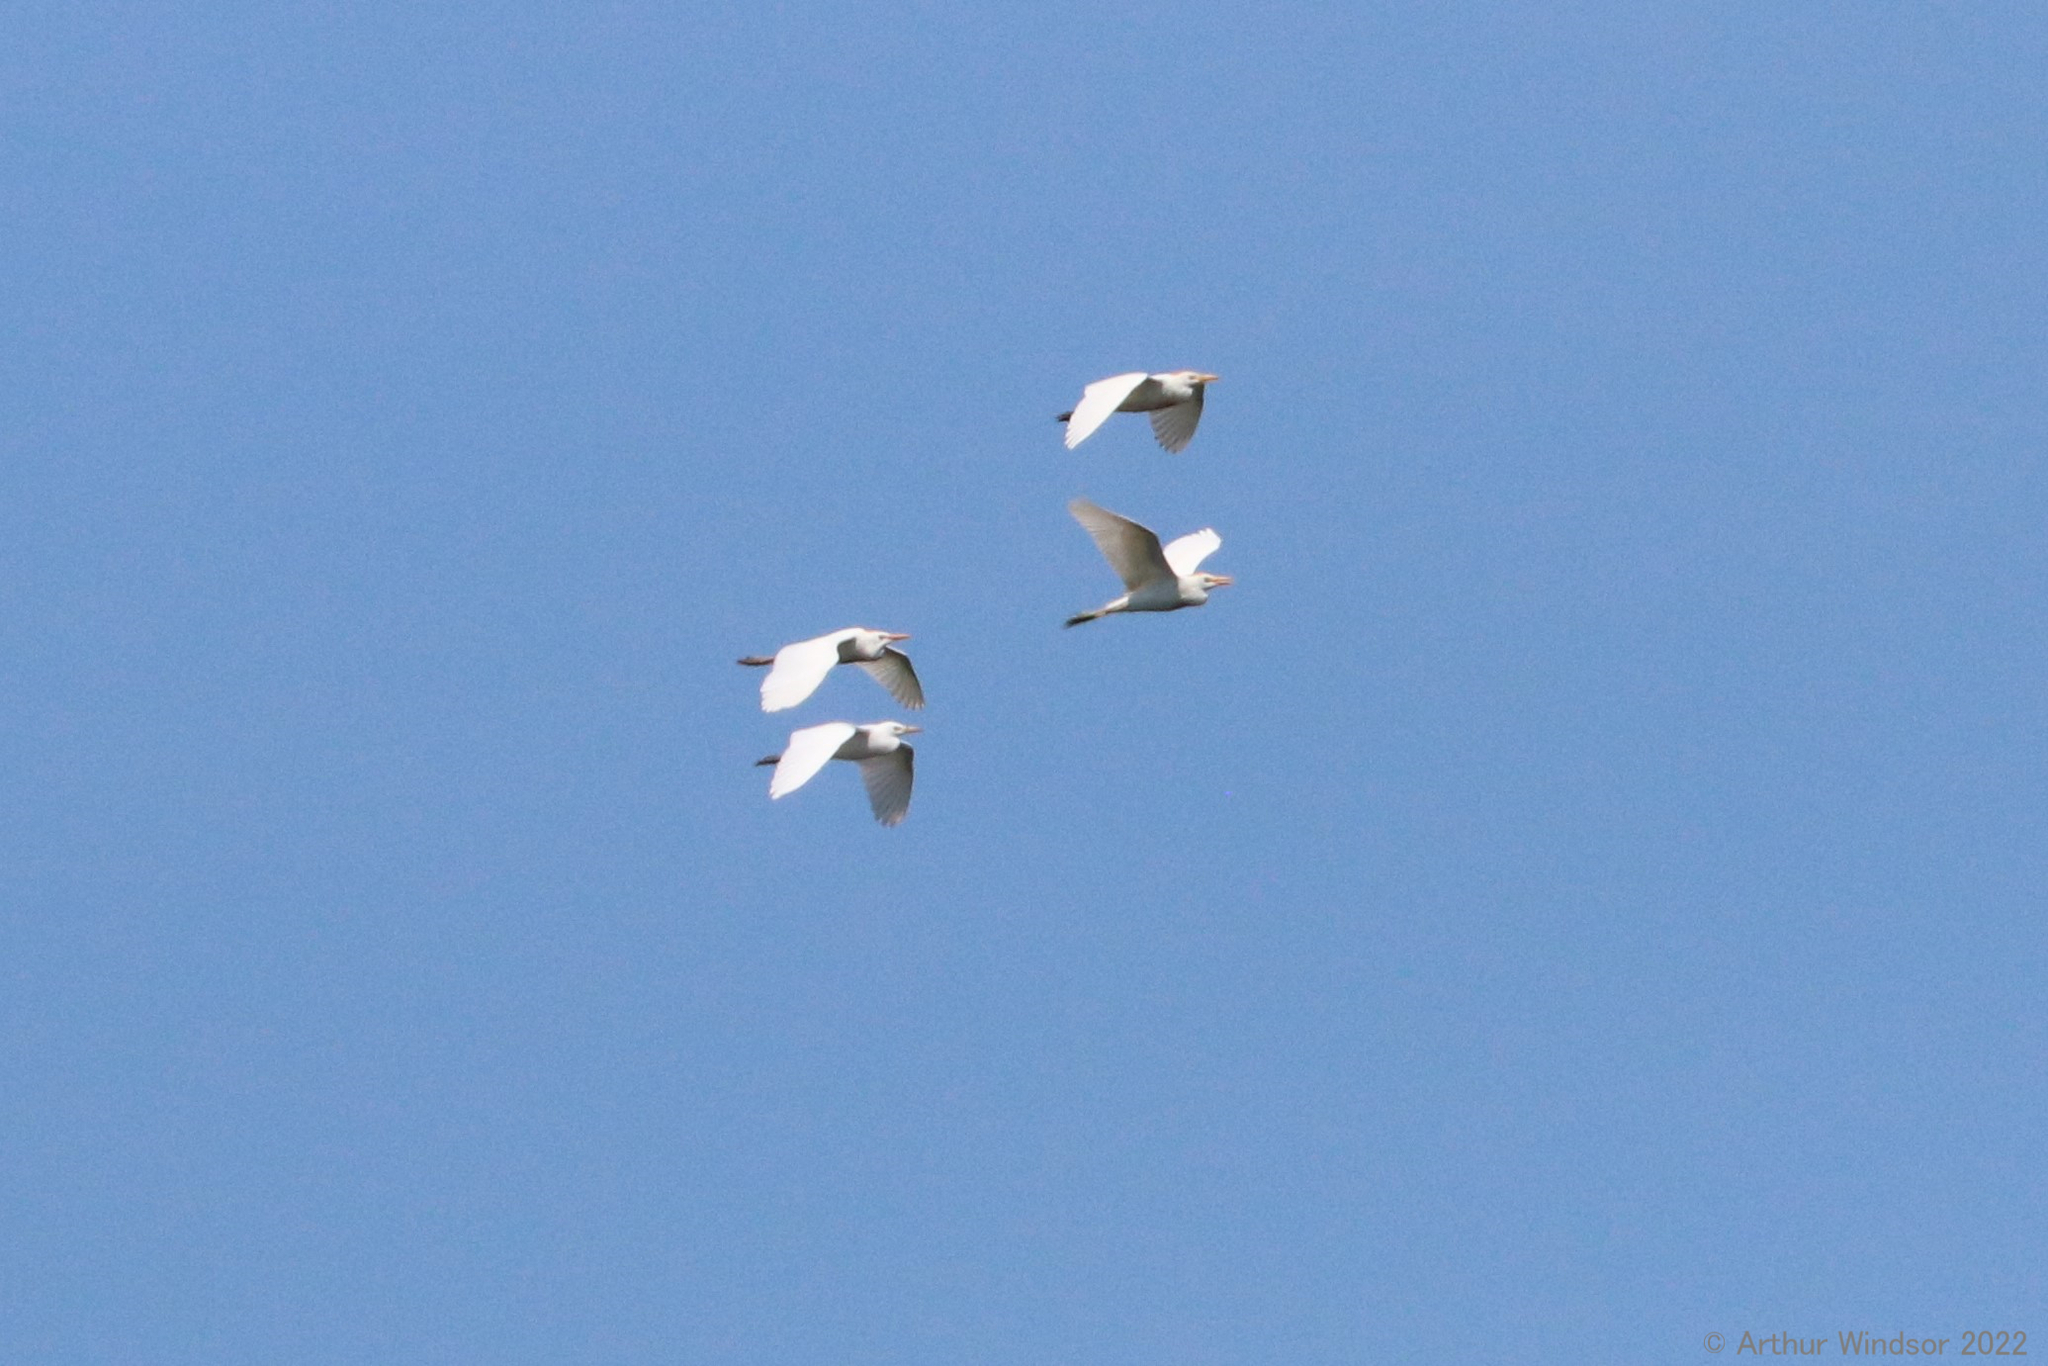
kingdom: Animalia
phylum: Chordata
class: Aves
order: Pelecaniformes
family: Ardeidae
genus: Bubulcus
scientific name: Bubulcus ibis
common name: Cattle egret
